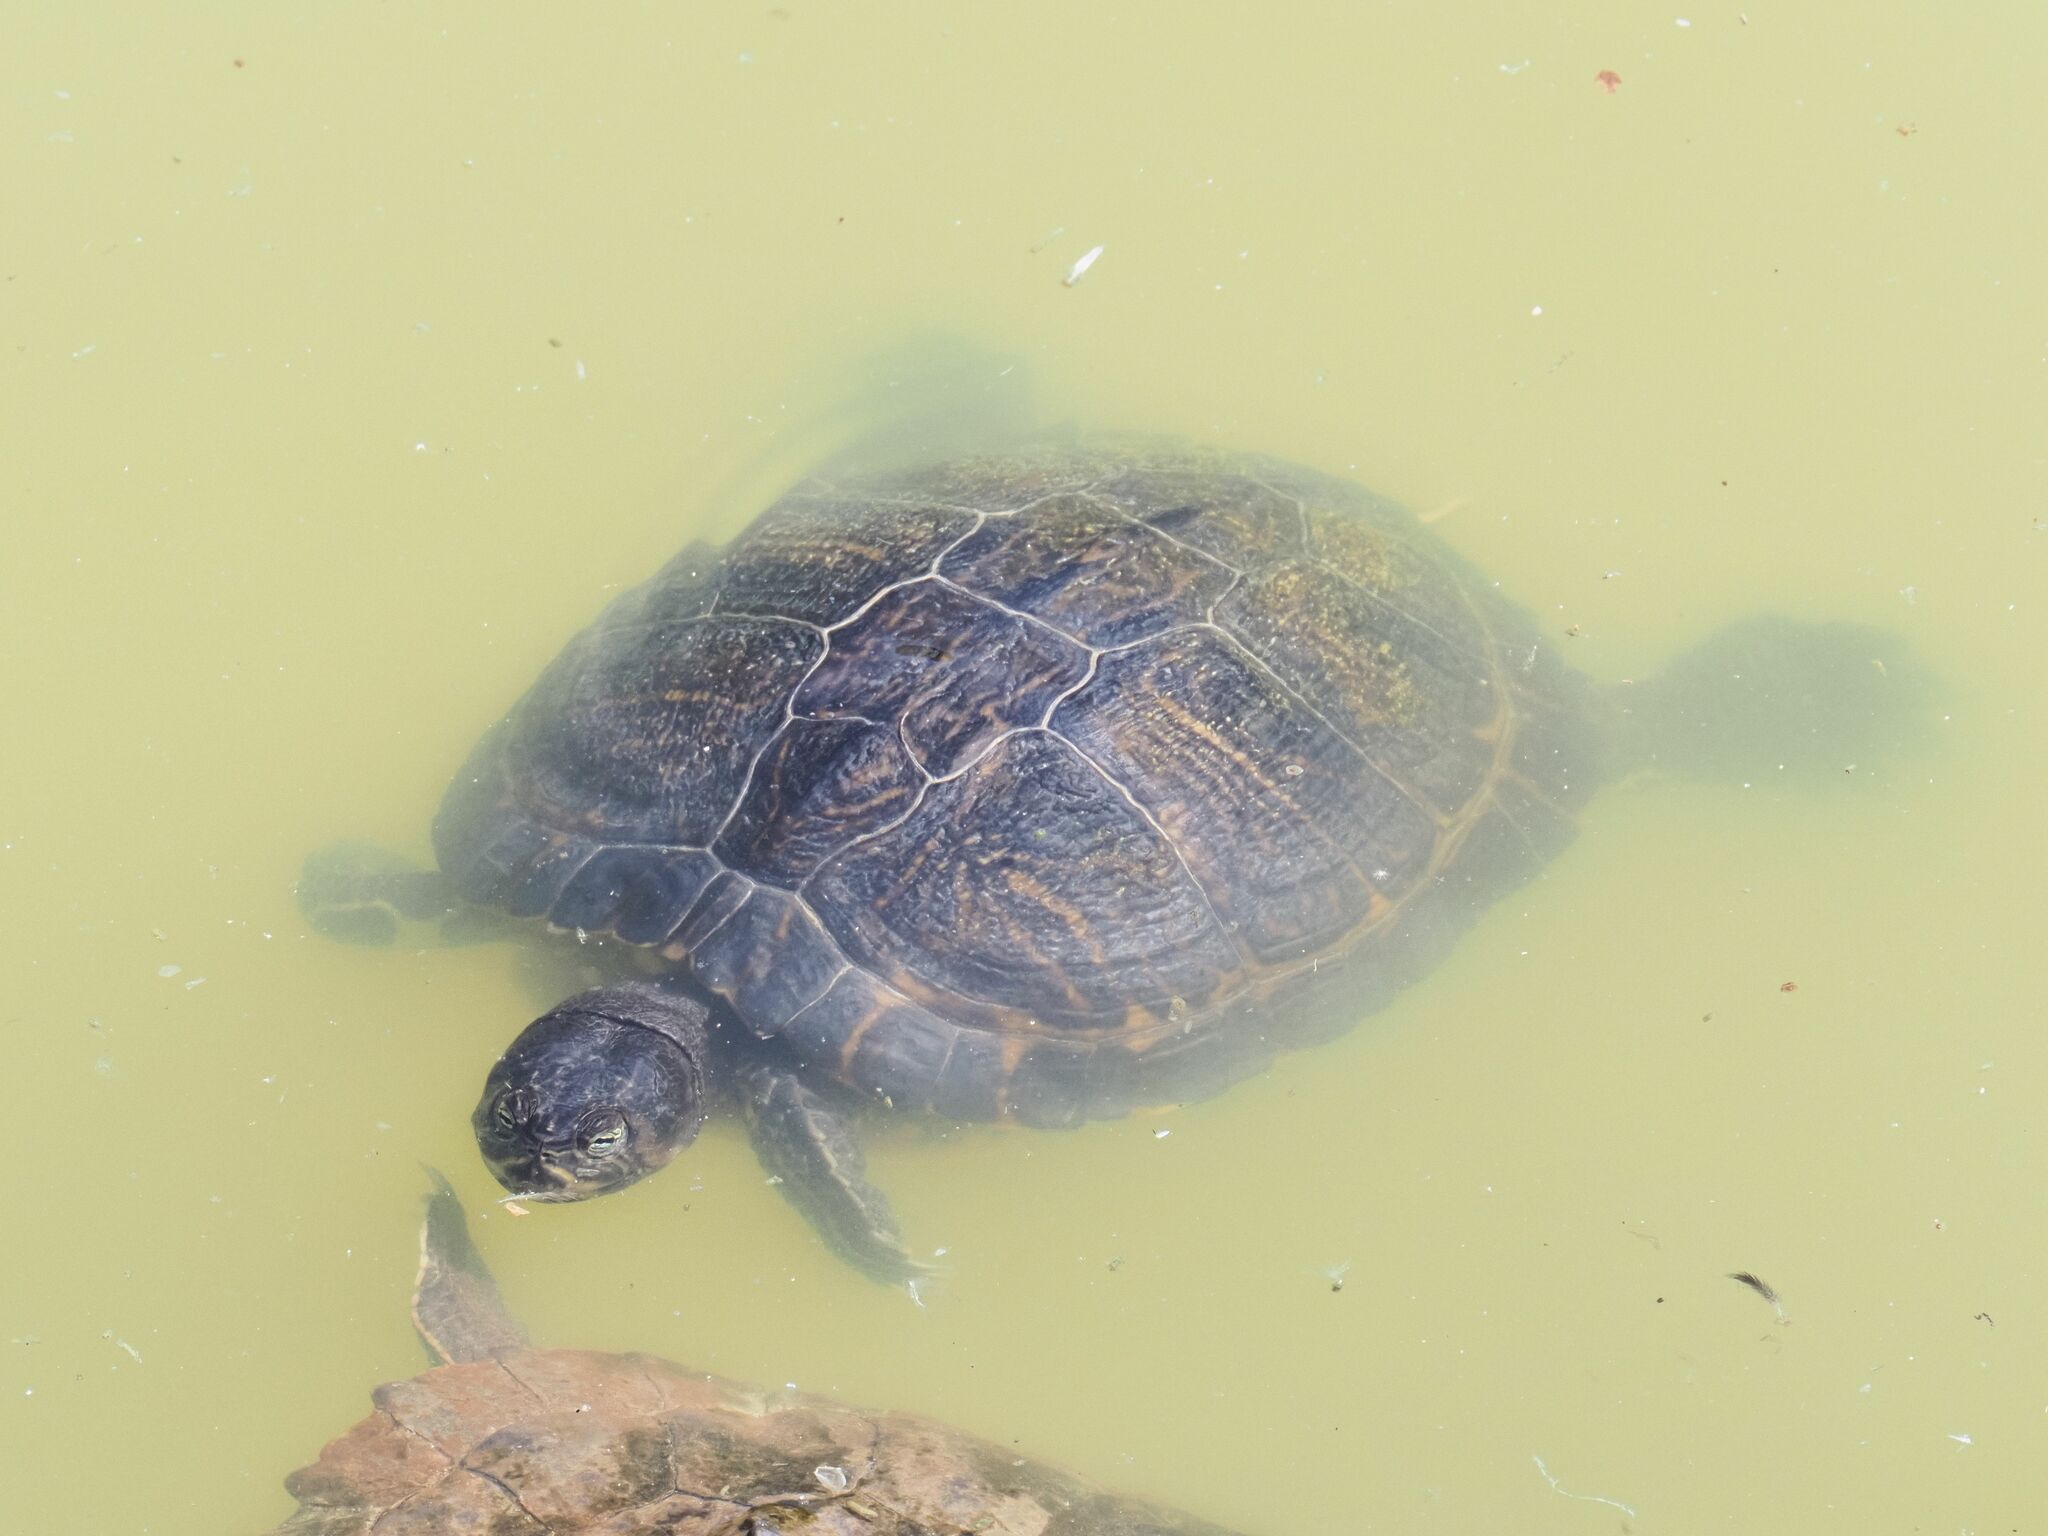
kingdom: Animalia
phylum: Chordata
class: Testudines
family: Emydidae
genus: Trachemys
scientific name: Trachemys scripta
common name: Slider
